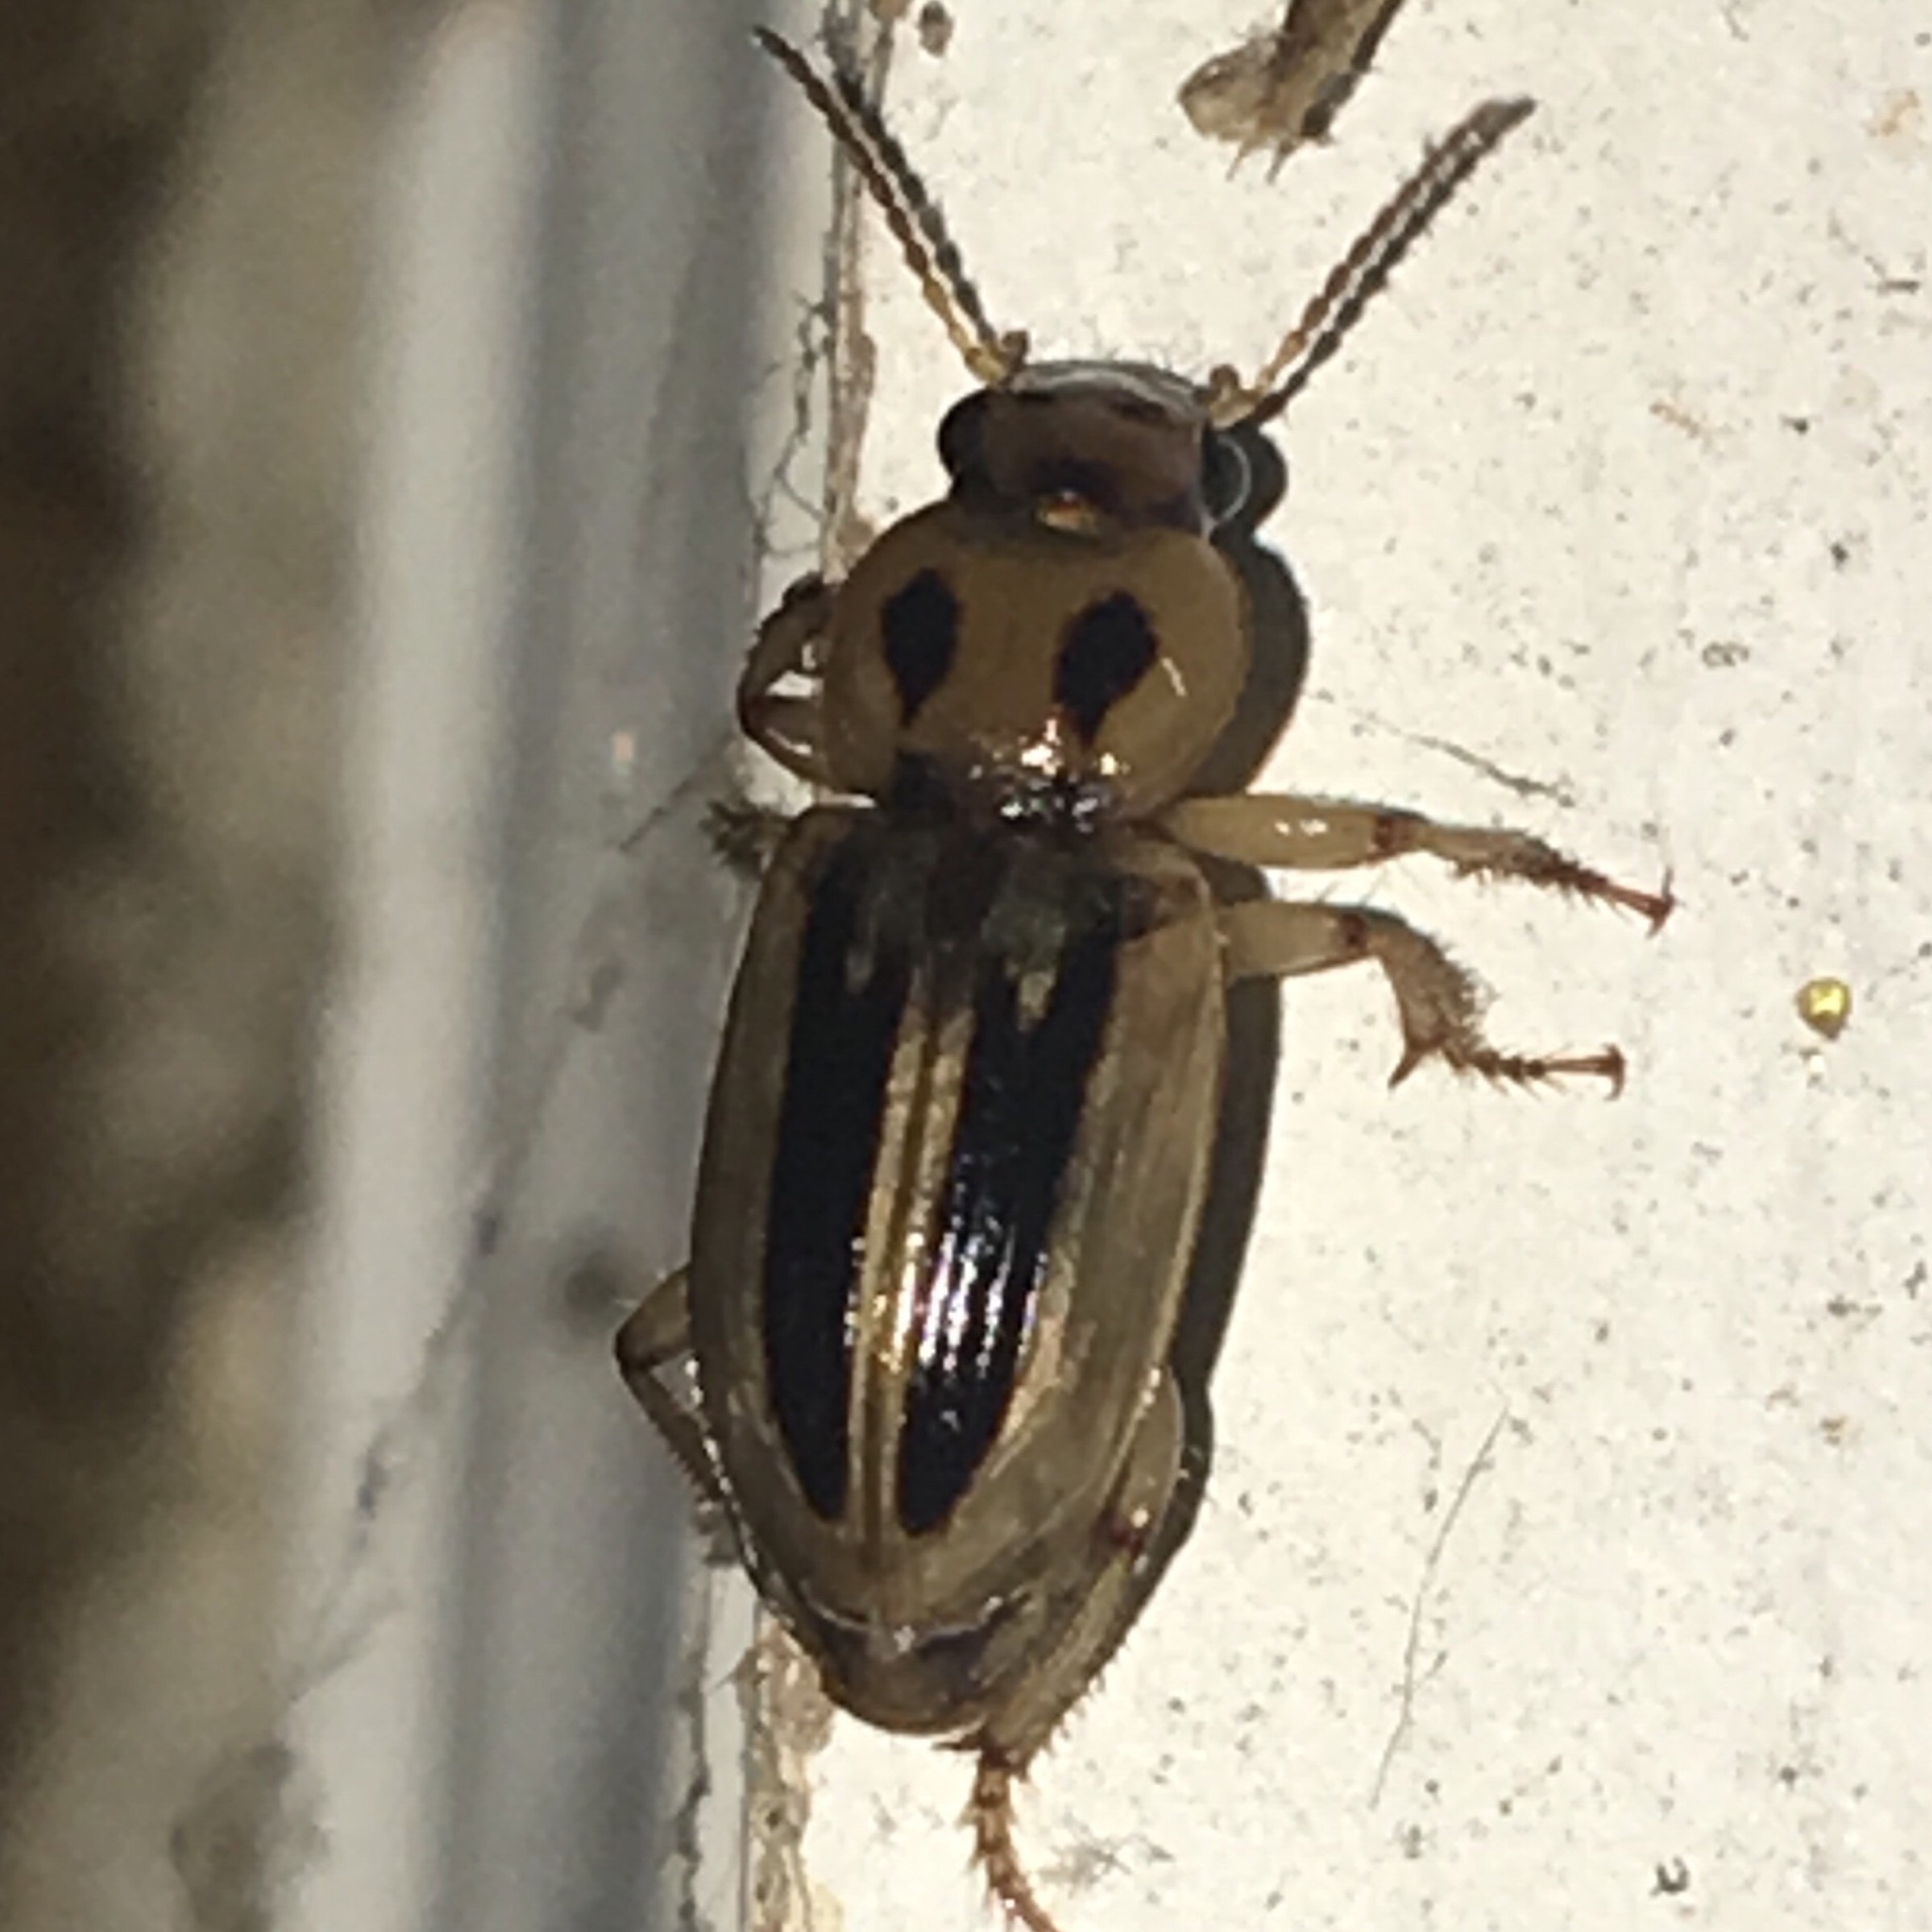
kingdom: Animalia
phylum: Arthropoda
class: Insecta
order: Coleoptera
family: Carabidae
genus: Stenolophus
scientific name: Stenolophus lineola
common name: Lined stenolophus
